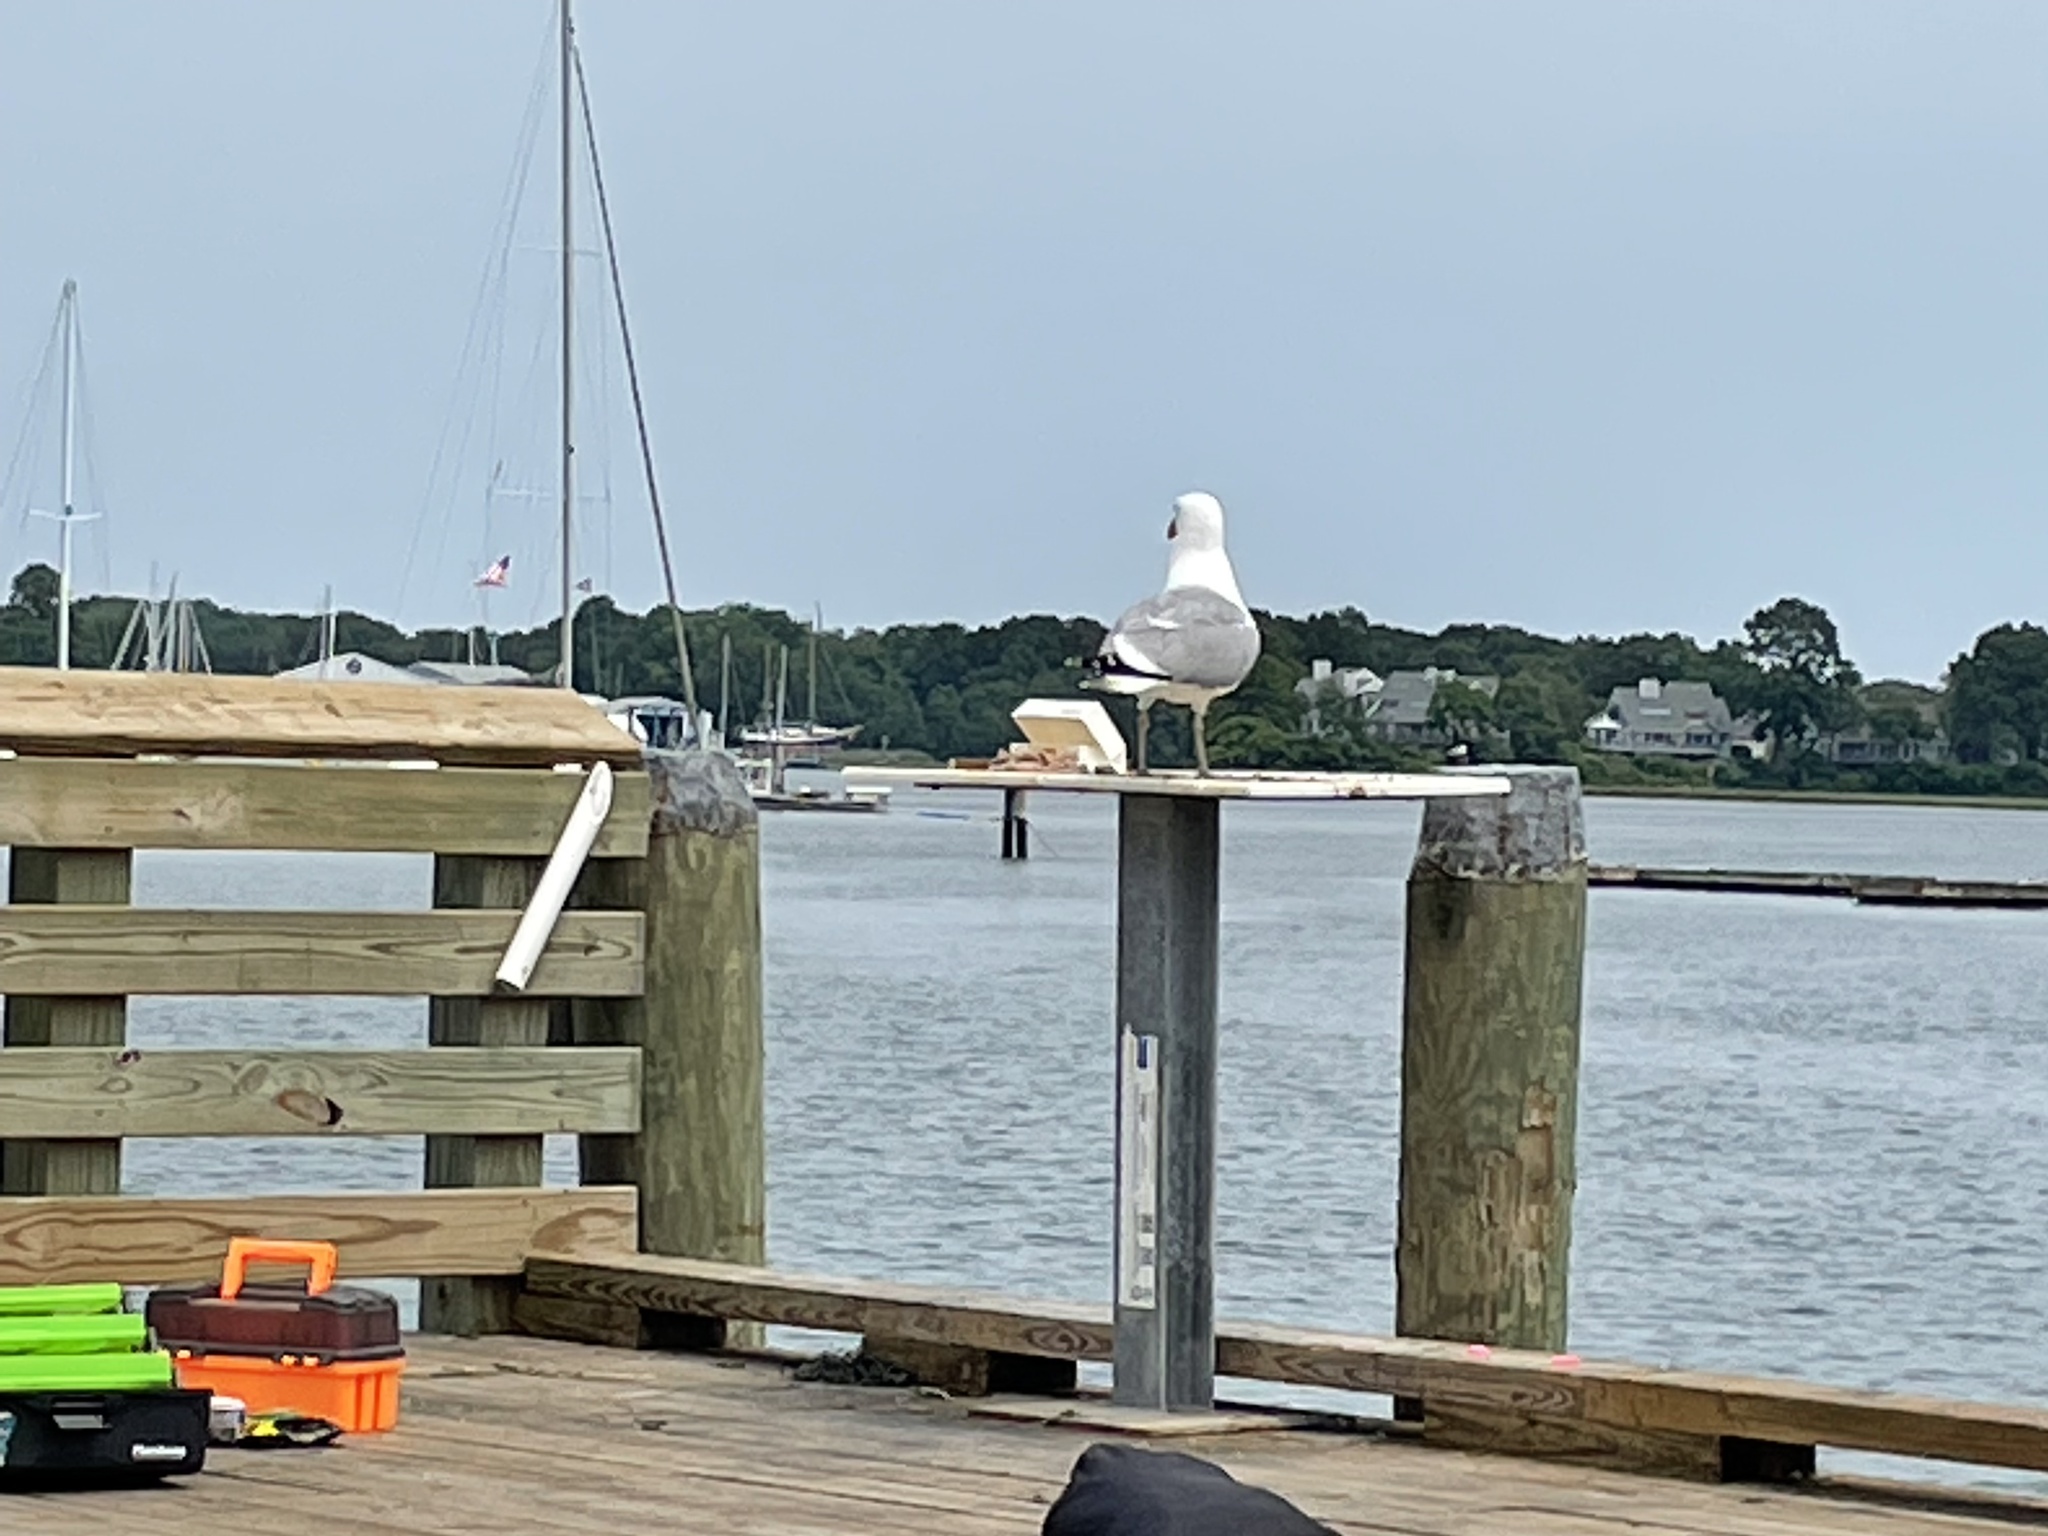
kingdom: Animalia
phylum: Chordata
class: Aves
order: Charadriiformes
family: Laridae
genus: Larus
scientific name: Larus argentatus
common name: Herring gull
